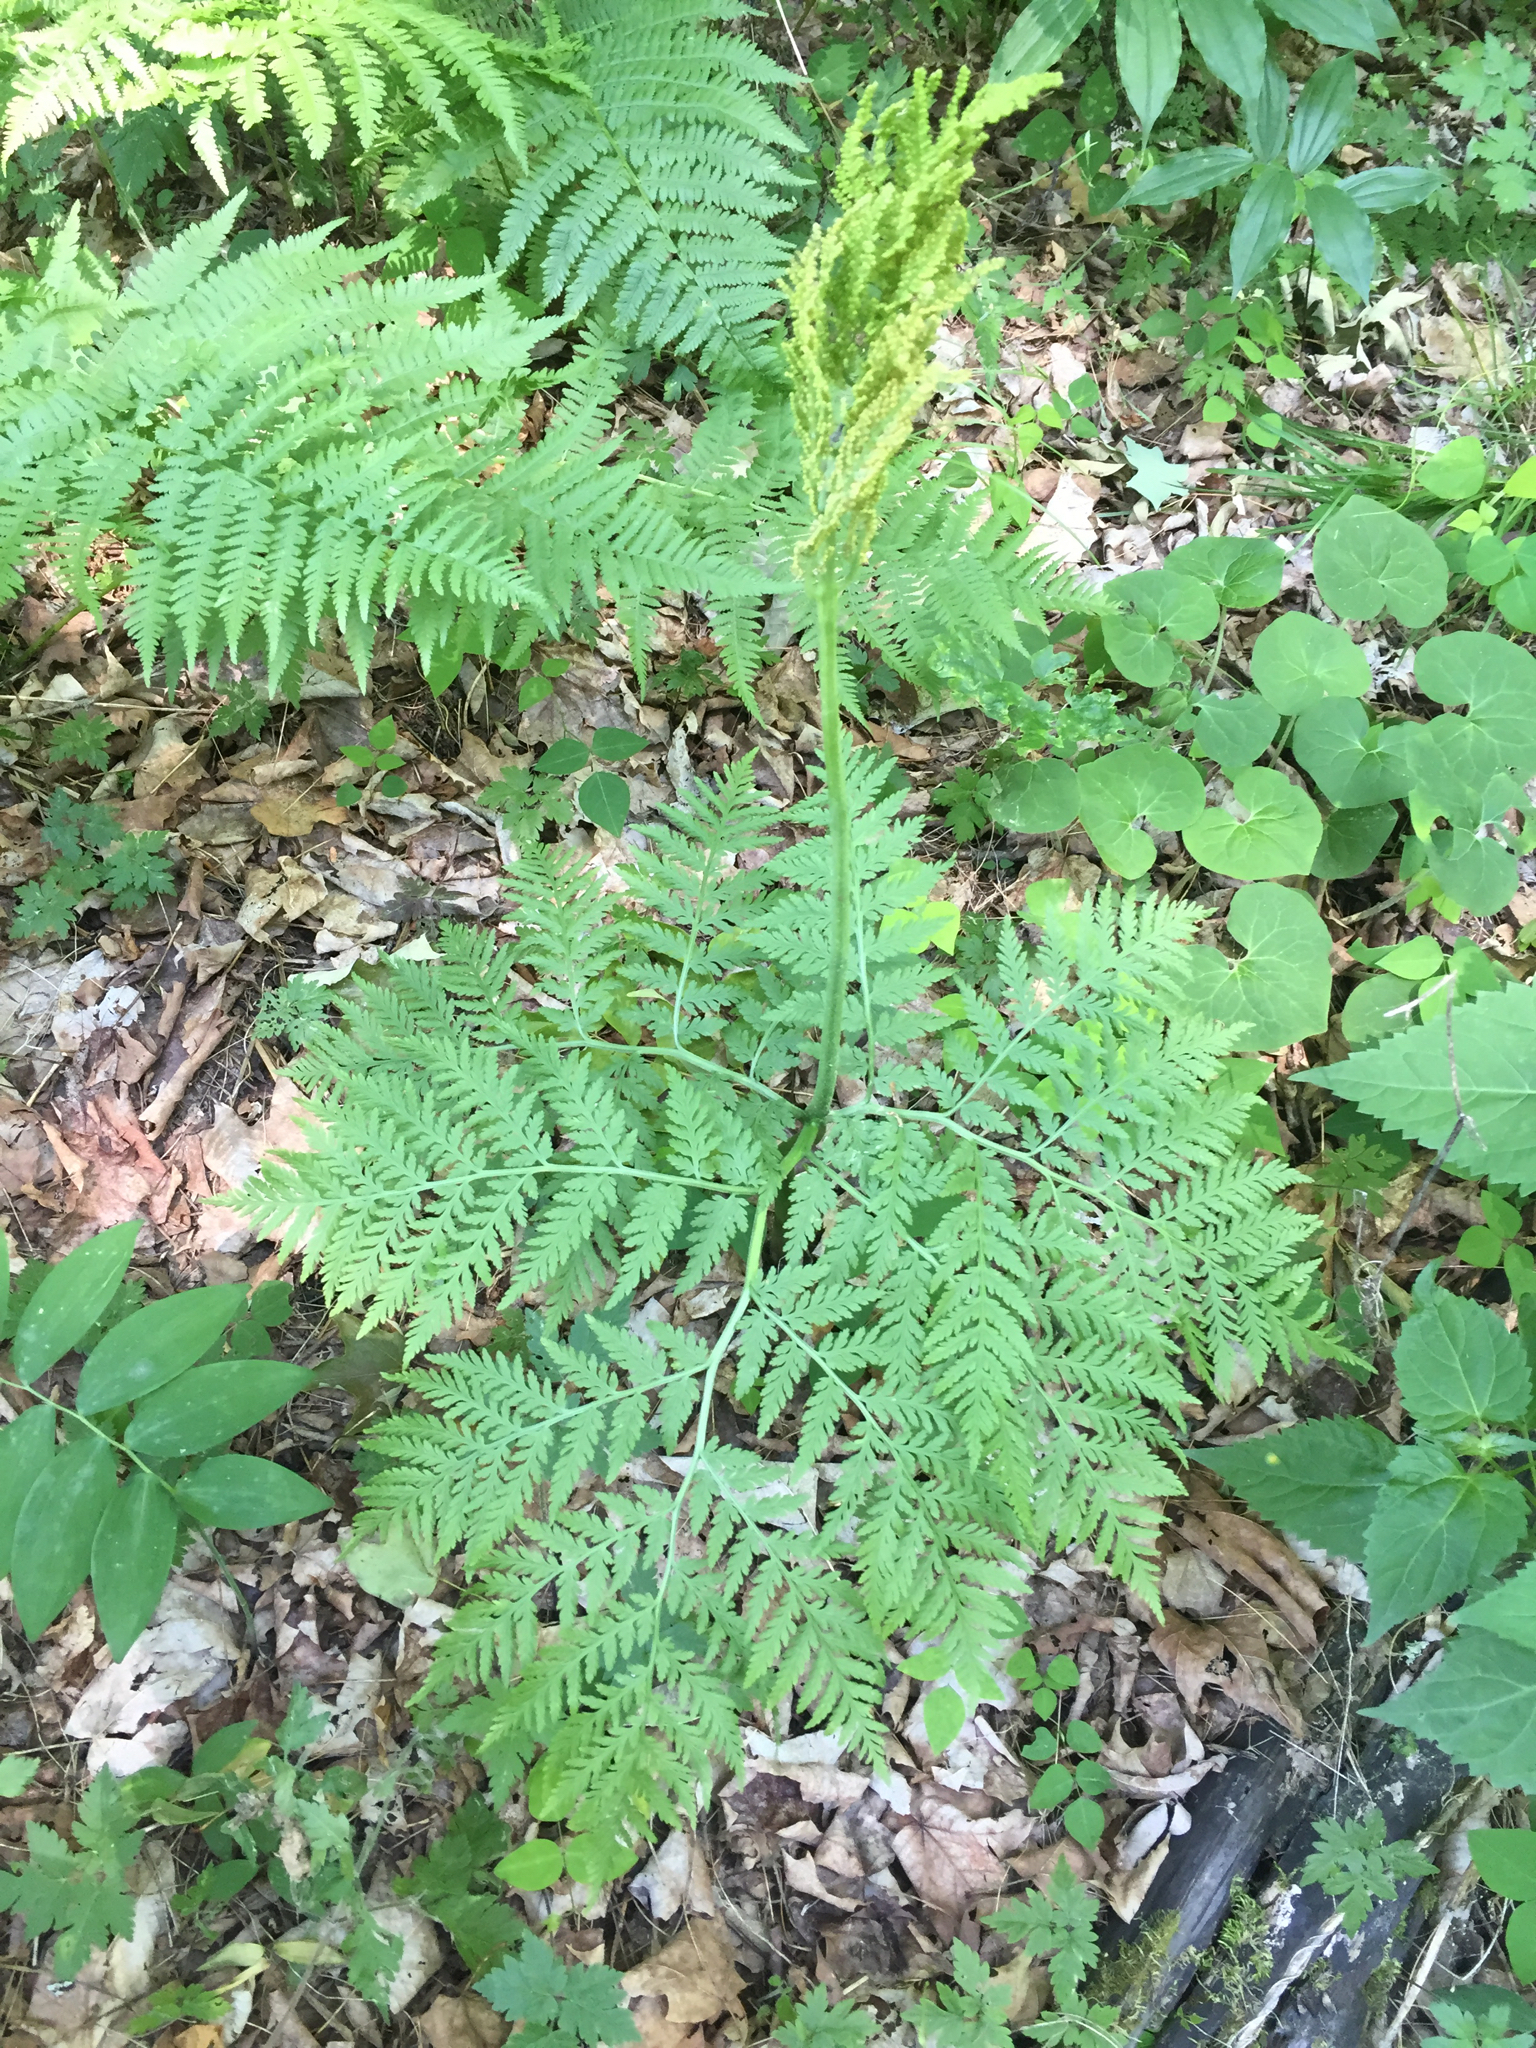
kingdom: Plantae
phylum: Tracheophyta
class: Polypodiopsida
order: Ophioglossales
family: Ophioglossaceae
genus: Botrypus
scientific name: Botrypus virginianus
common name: Common grapefern
